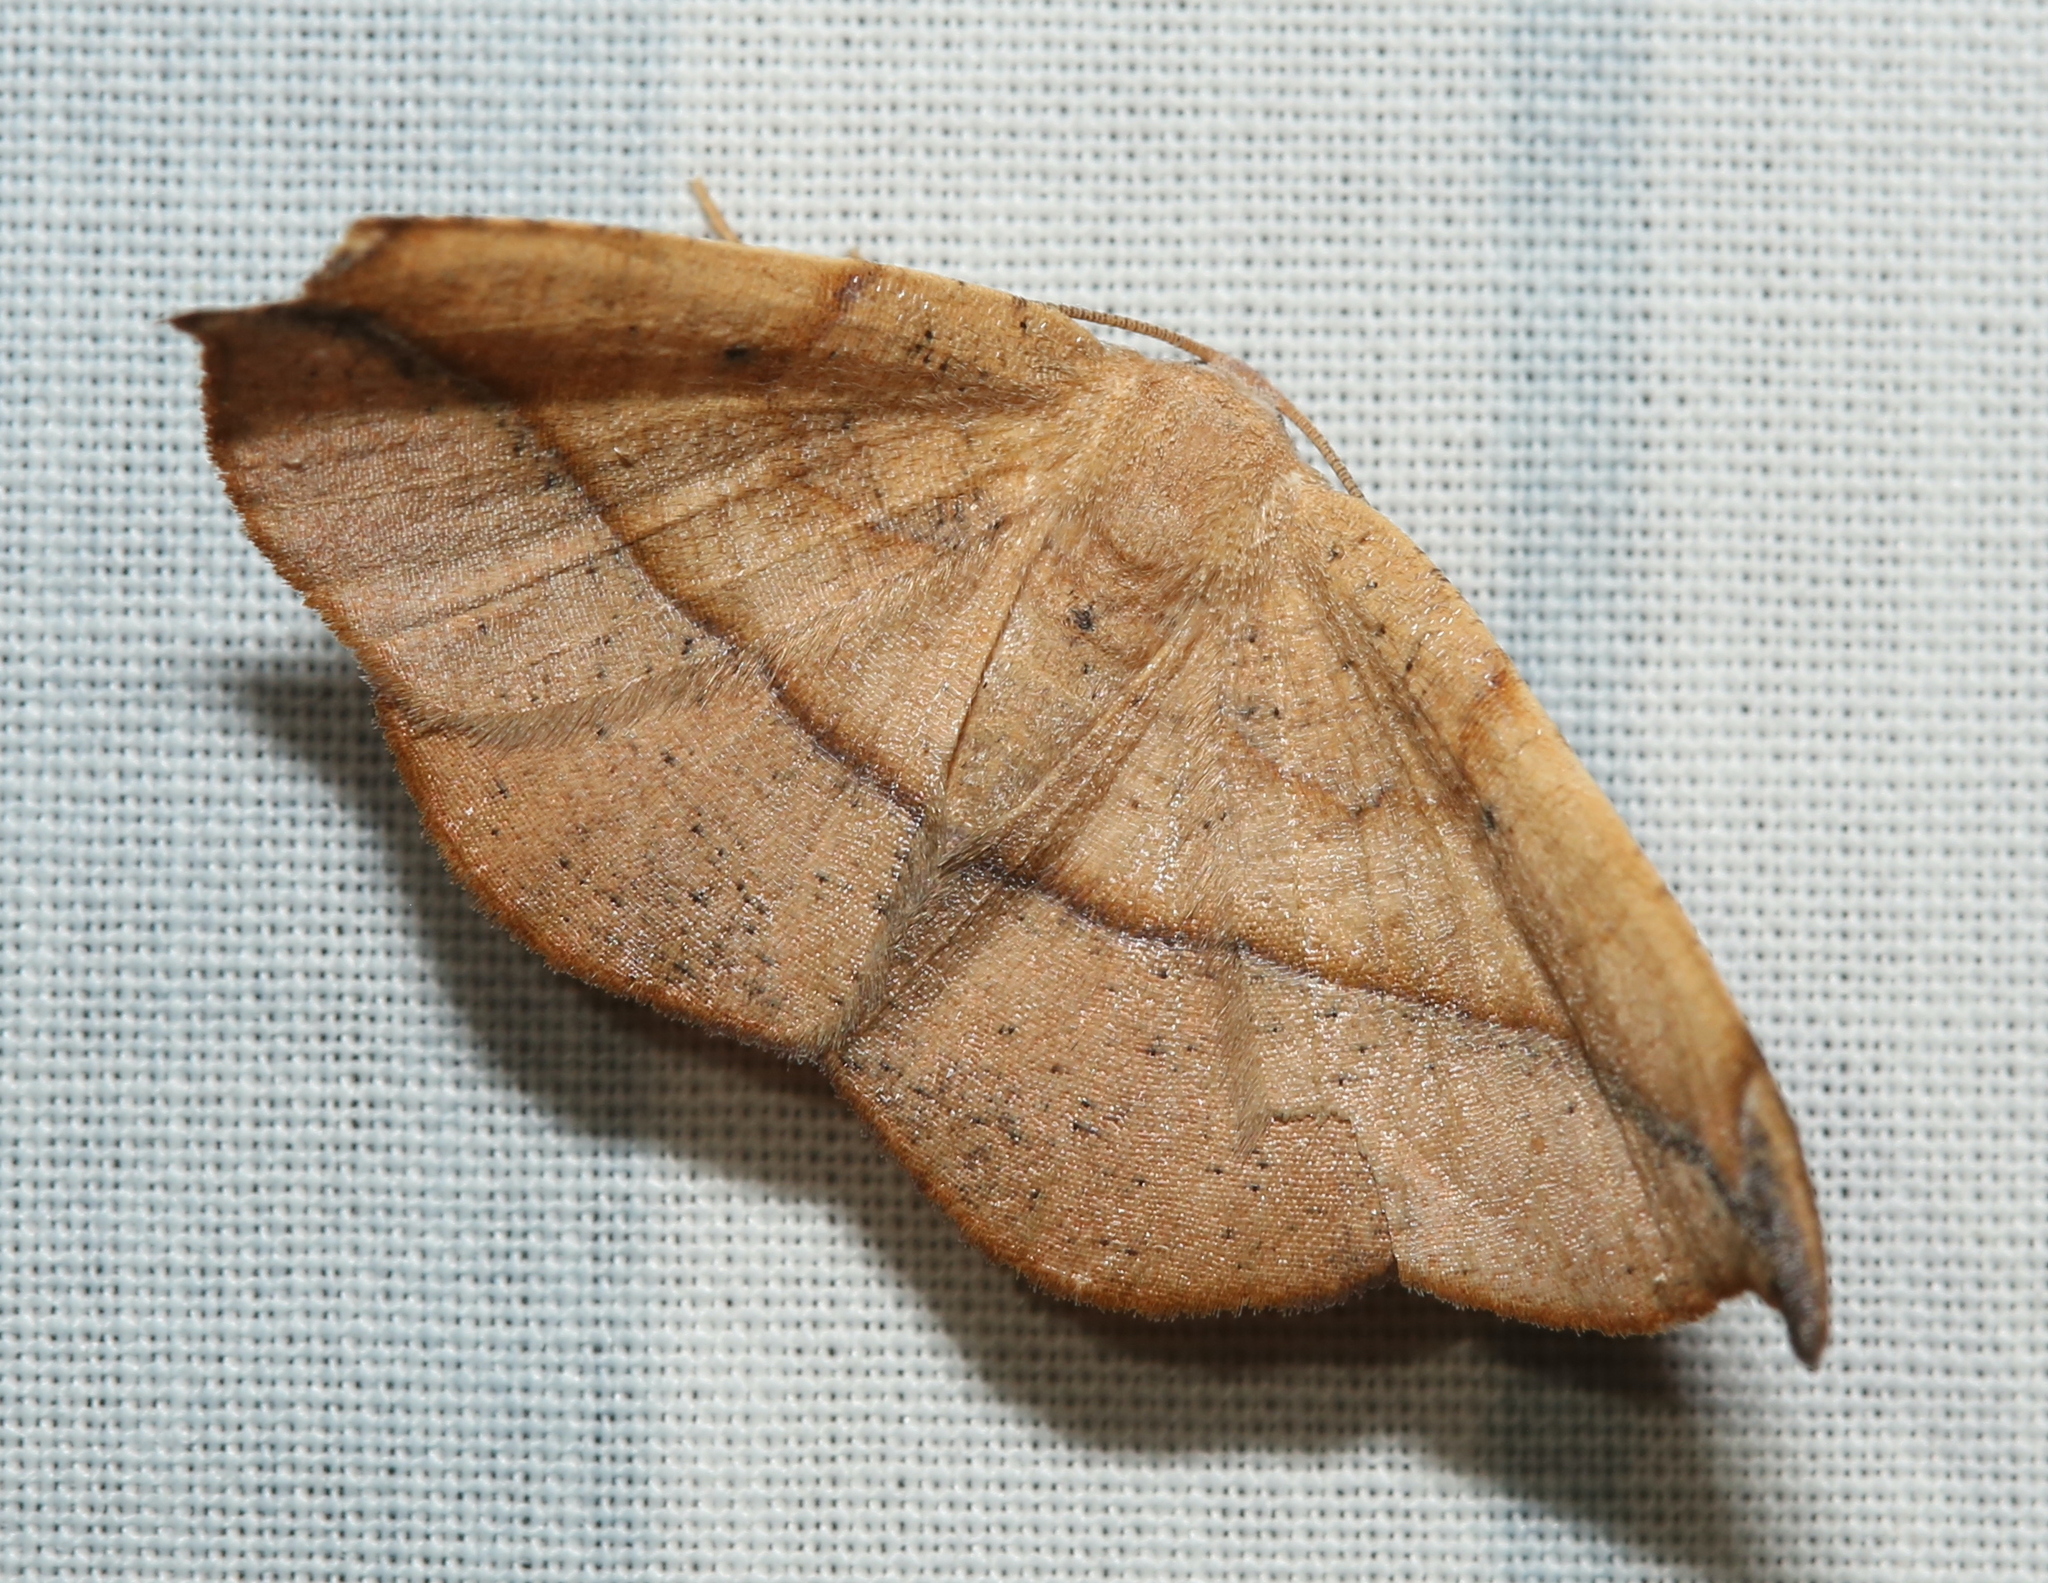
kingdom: Animalia
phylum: Arthropoda
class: Insecta
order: Lepidoptera
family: Geometridae
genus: Patalene
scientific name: Patalene olyzonaria
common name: Juniper geometer moth
